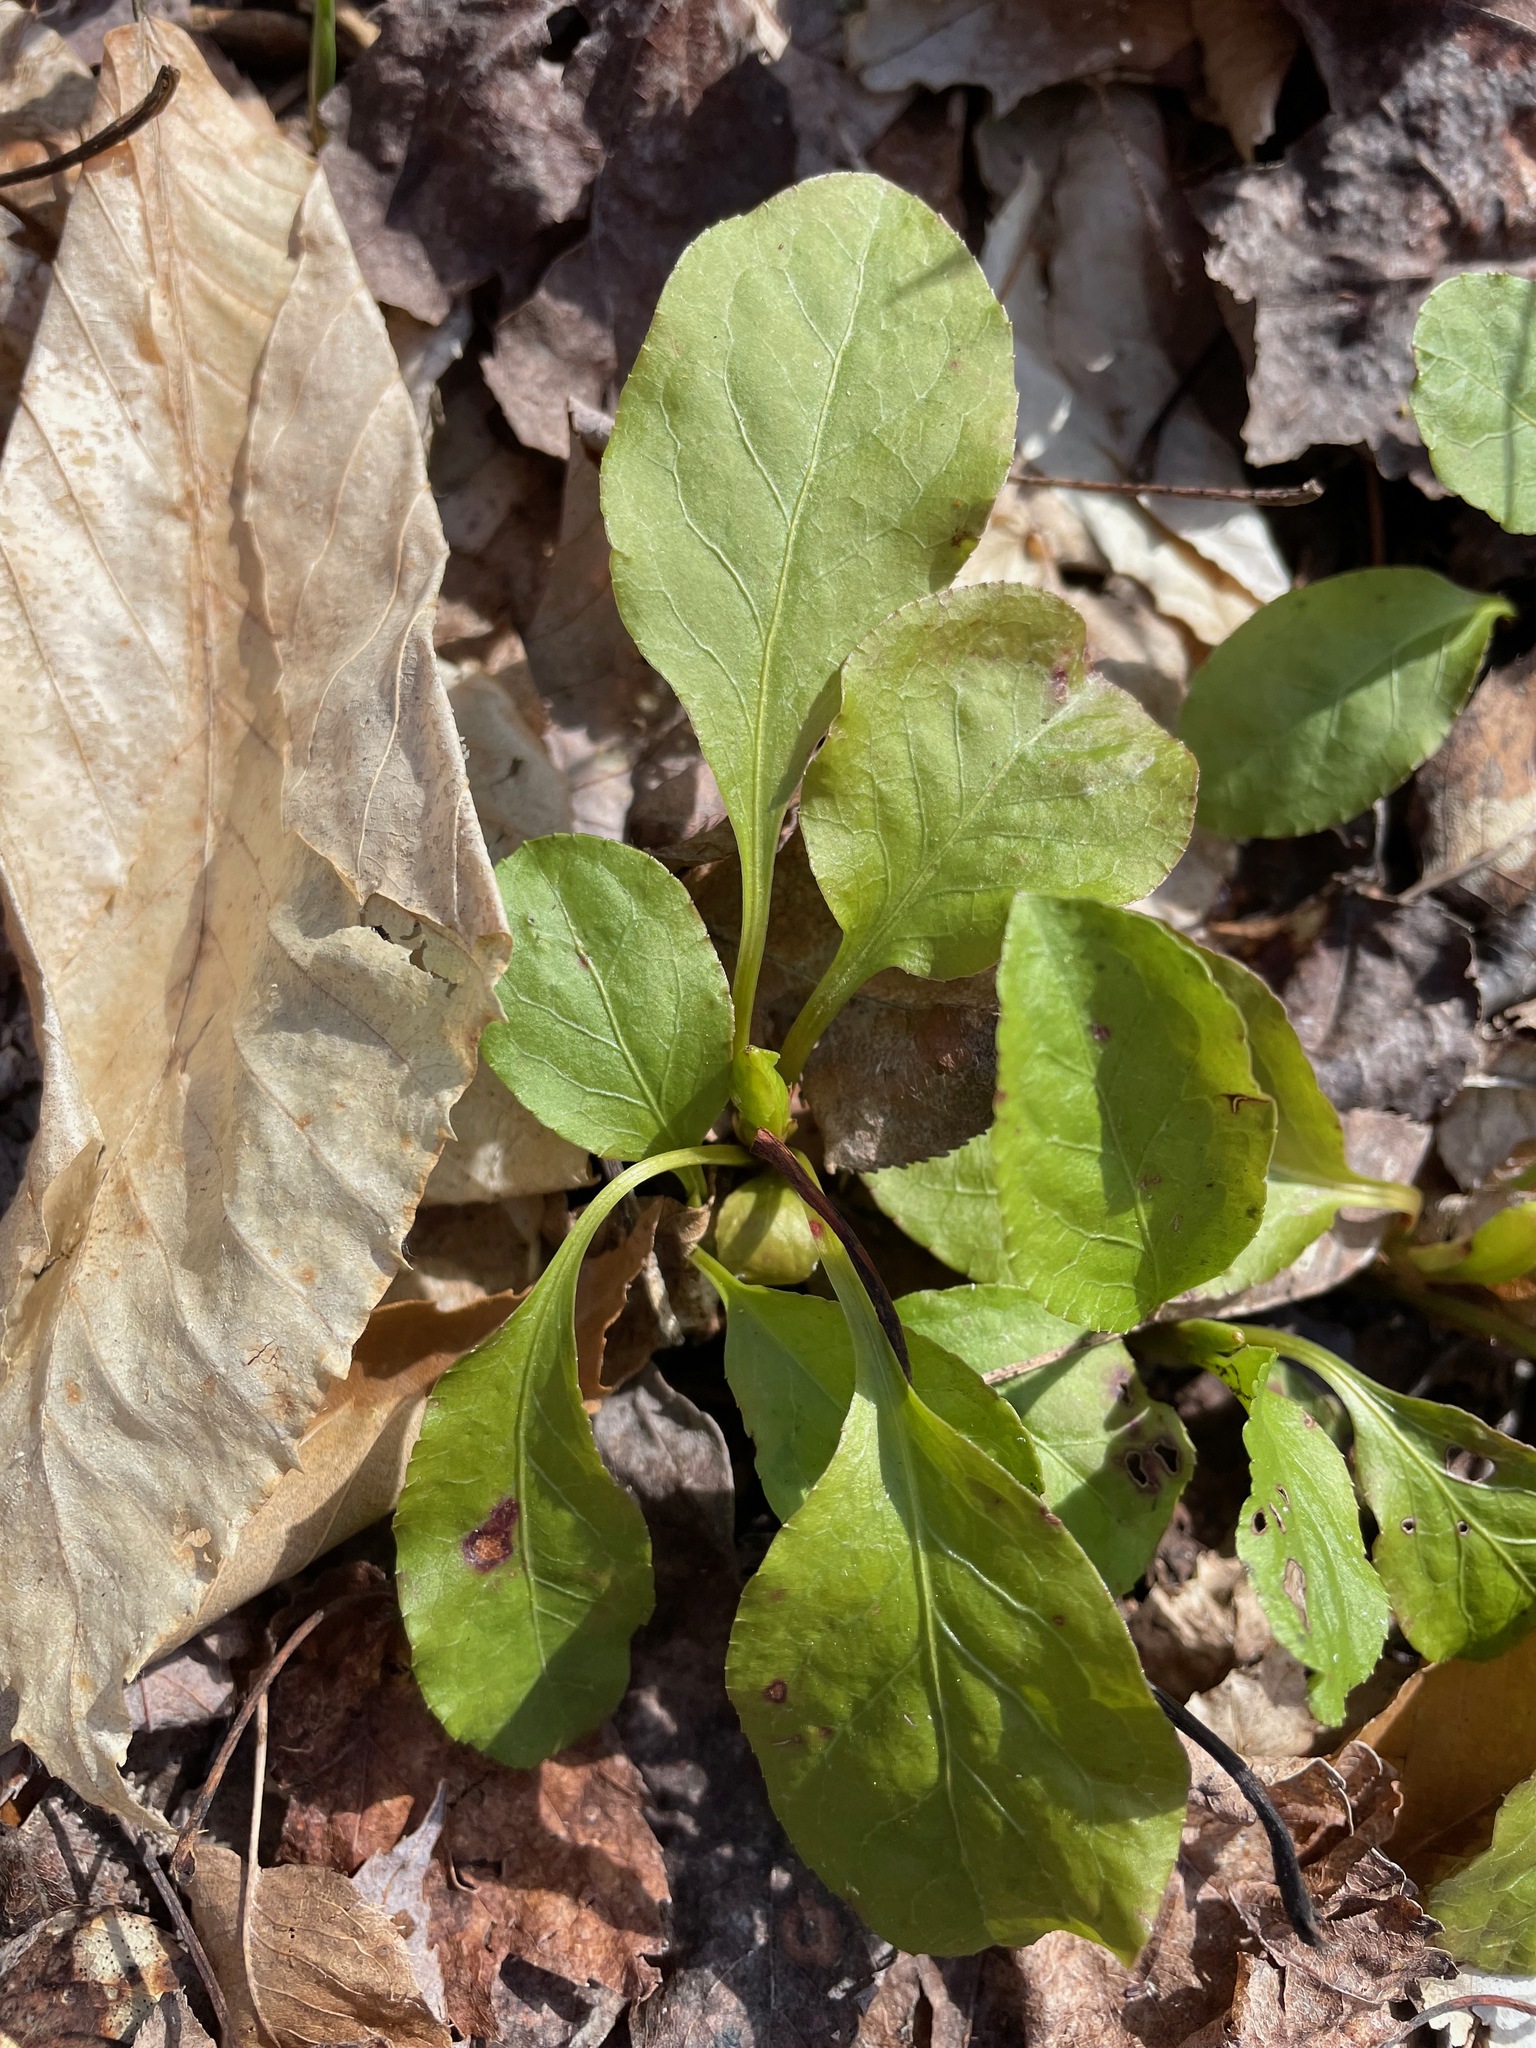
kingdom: Plantae
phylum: Tracheophyta
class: Magnoliopsida
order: Ericales
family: Ericaceae
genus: Pyrola
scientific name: Pyrola elliptica
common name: Shinleaf
